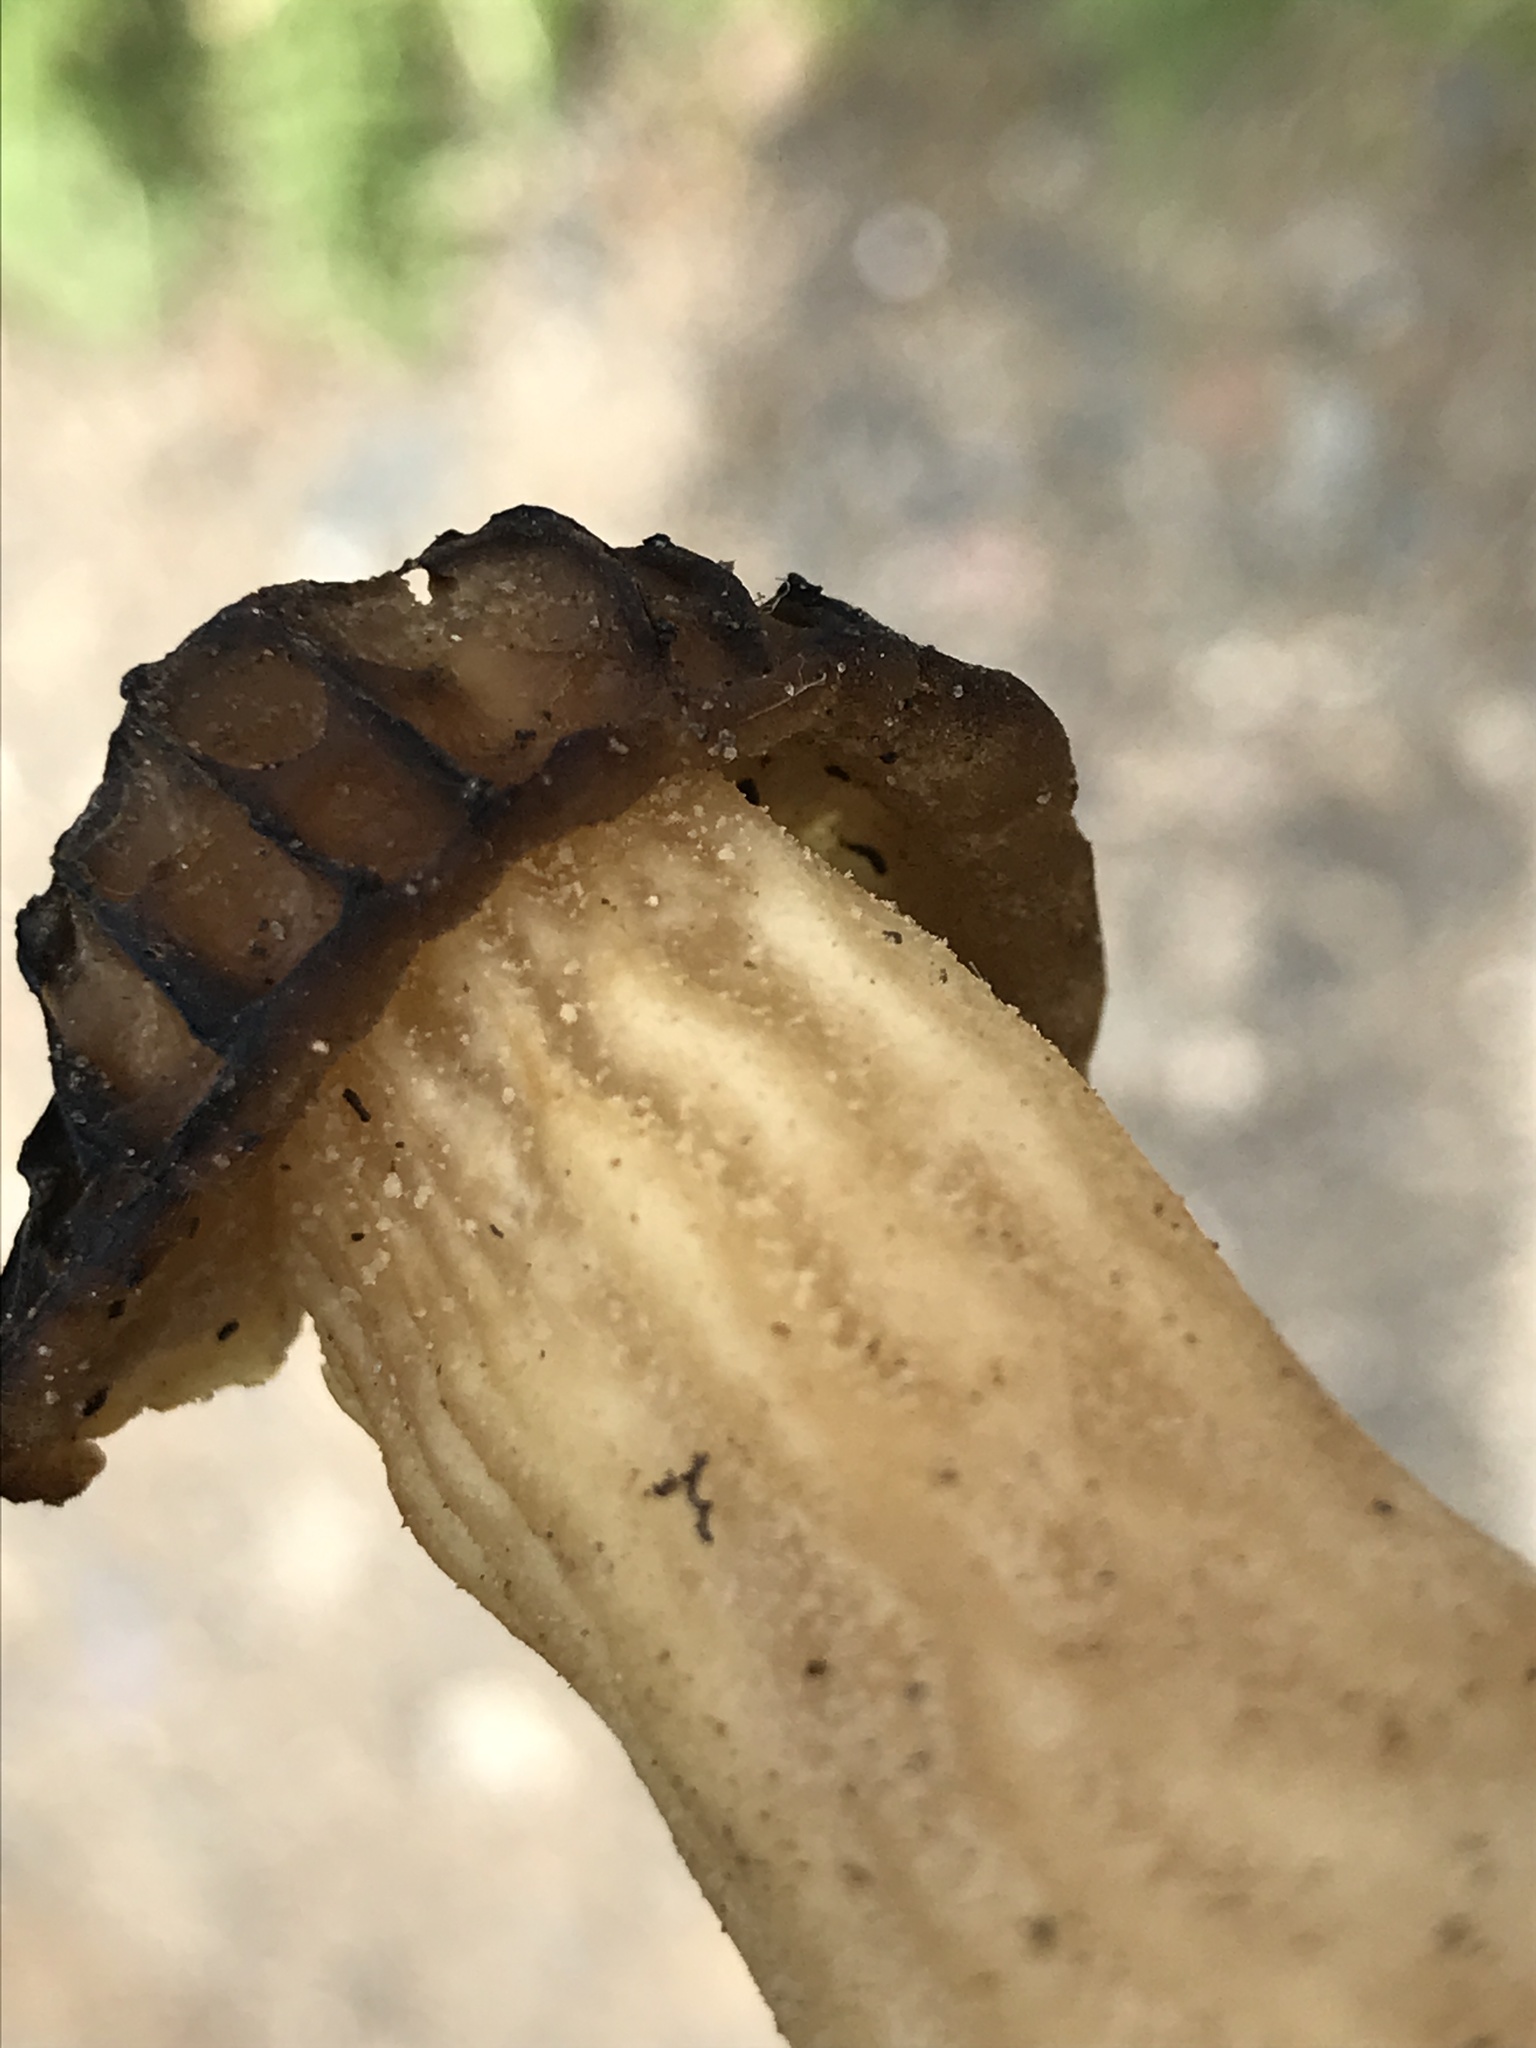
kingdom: Fungi
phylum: Ascomycota
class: Pezizomycetes
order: Pezizales
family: Morchellaceae
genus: Morchella
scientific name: Morchella semilibera
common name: Semifree morel
